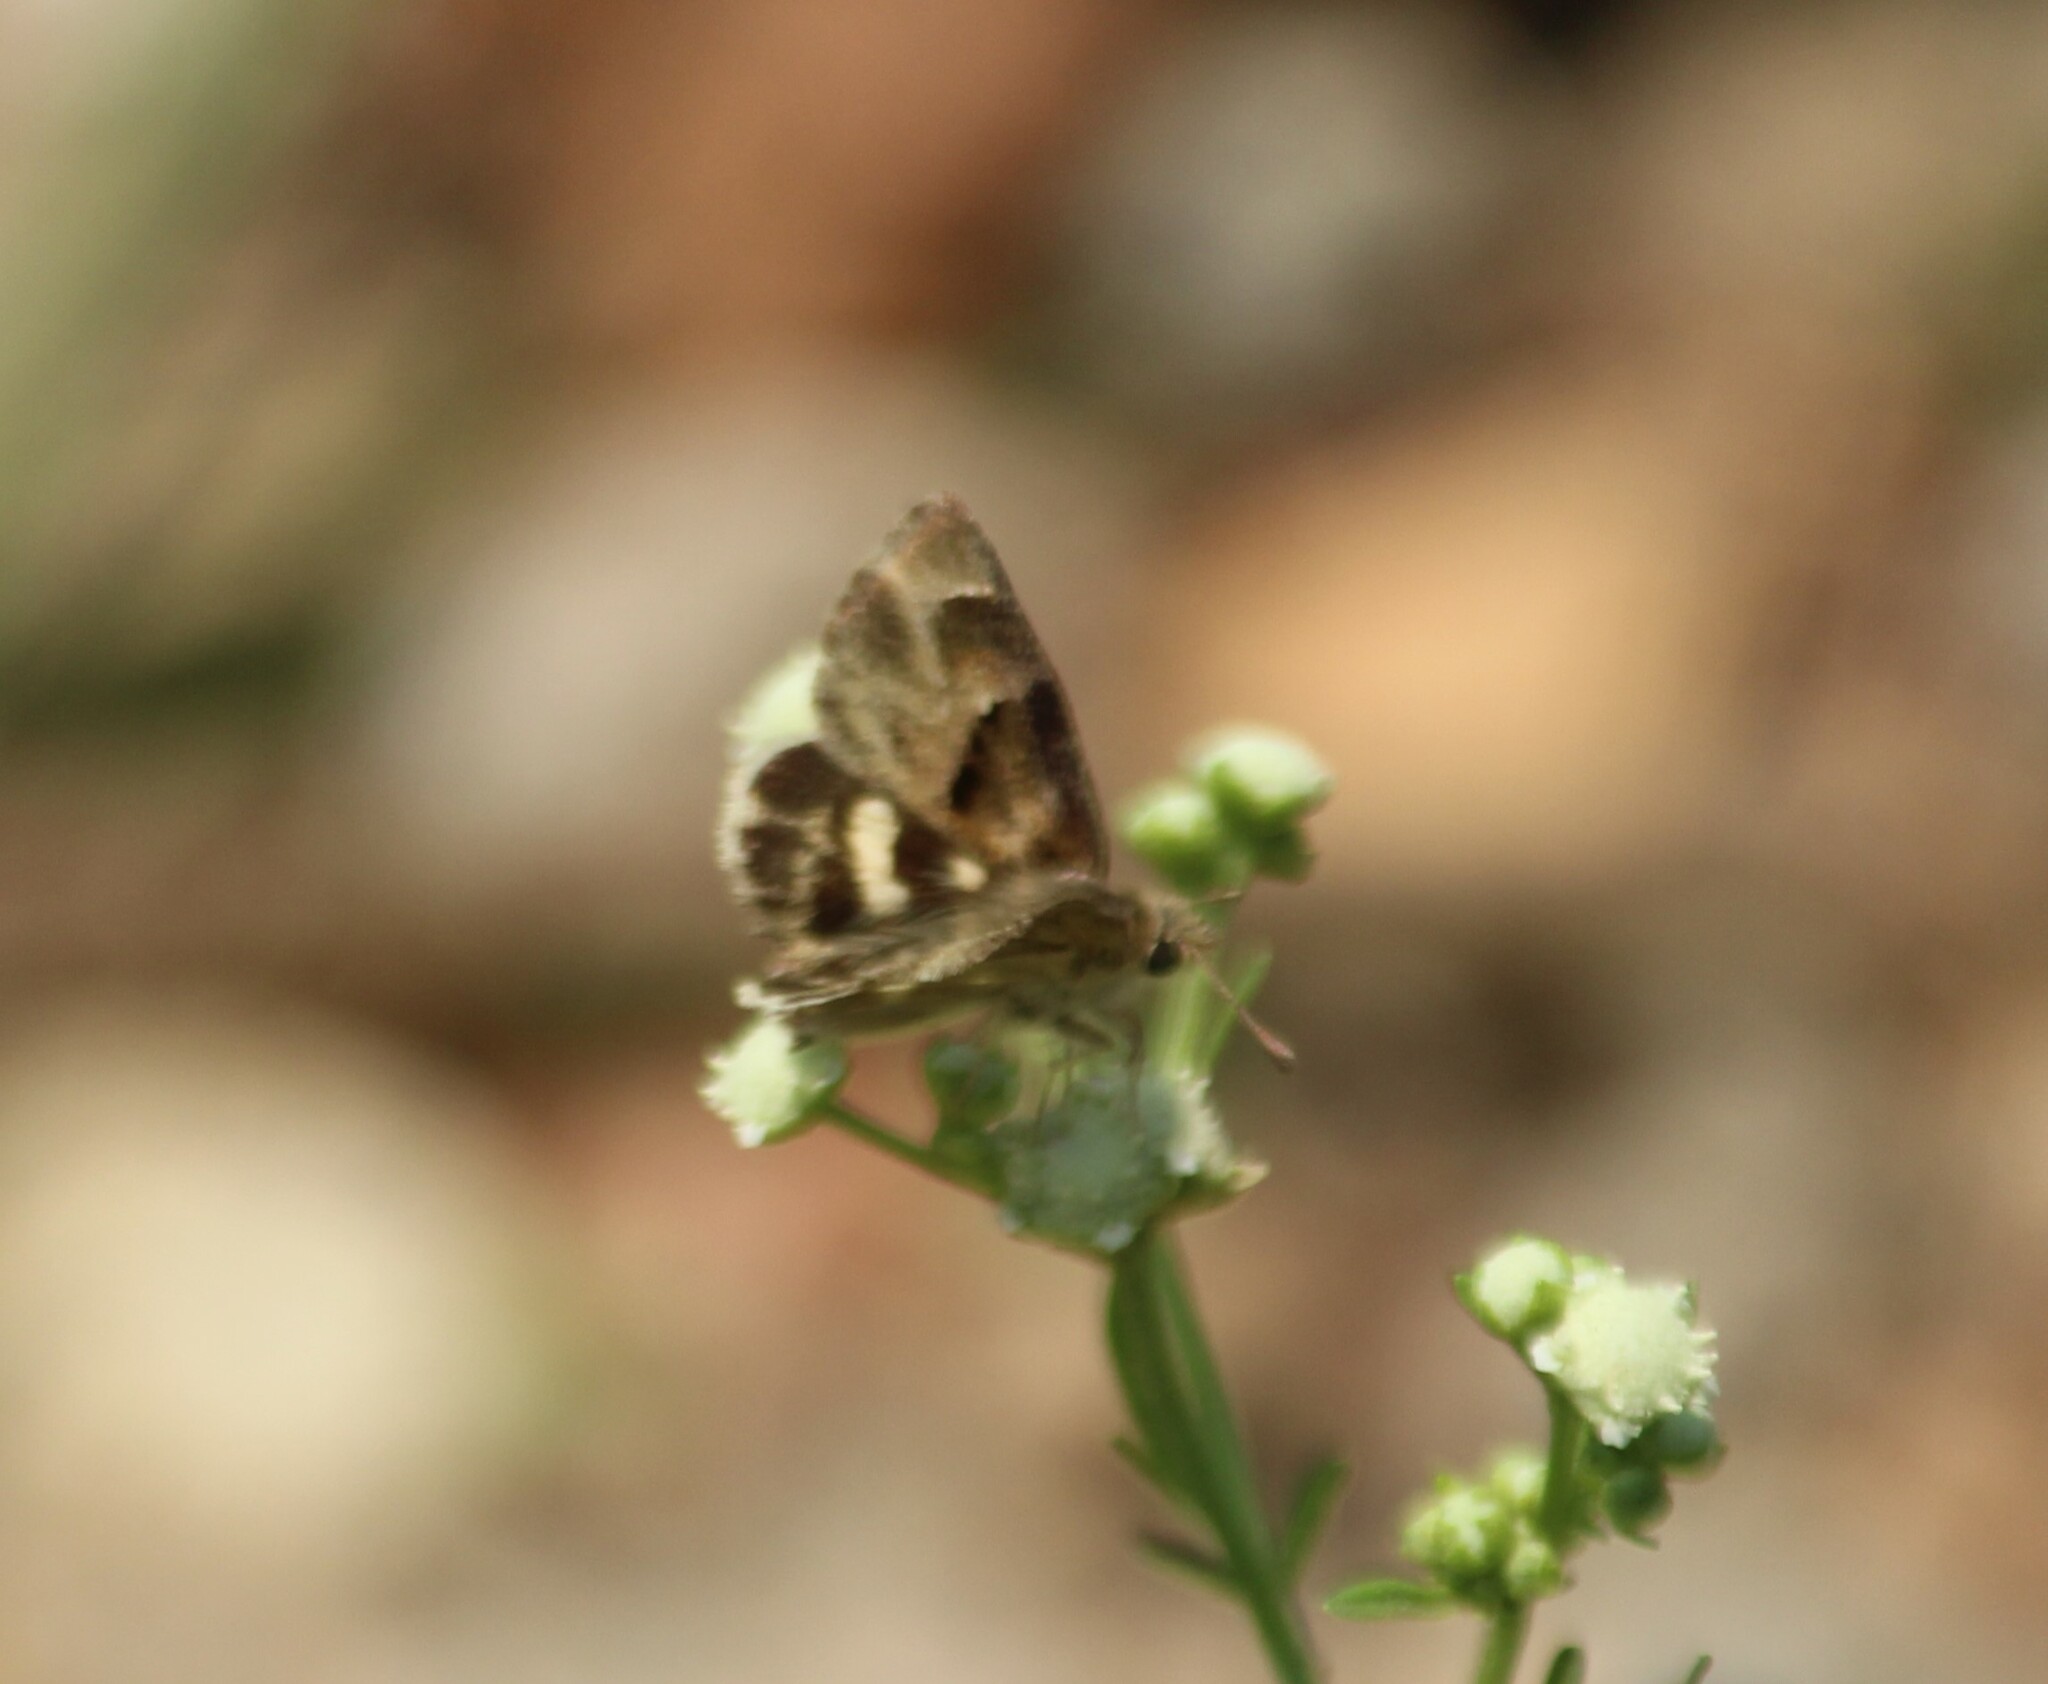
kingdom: Animalia
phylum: Arthropoda
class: Insecta
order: Lepidoptera
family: Hesperiidae
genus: Gomalia
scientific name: Gomalia elma
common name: Green-marbled skipper
